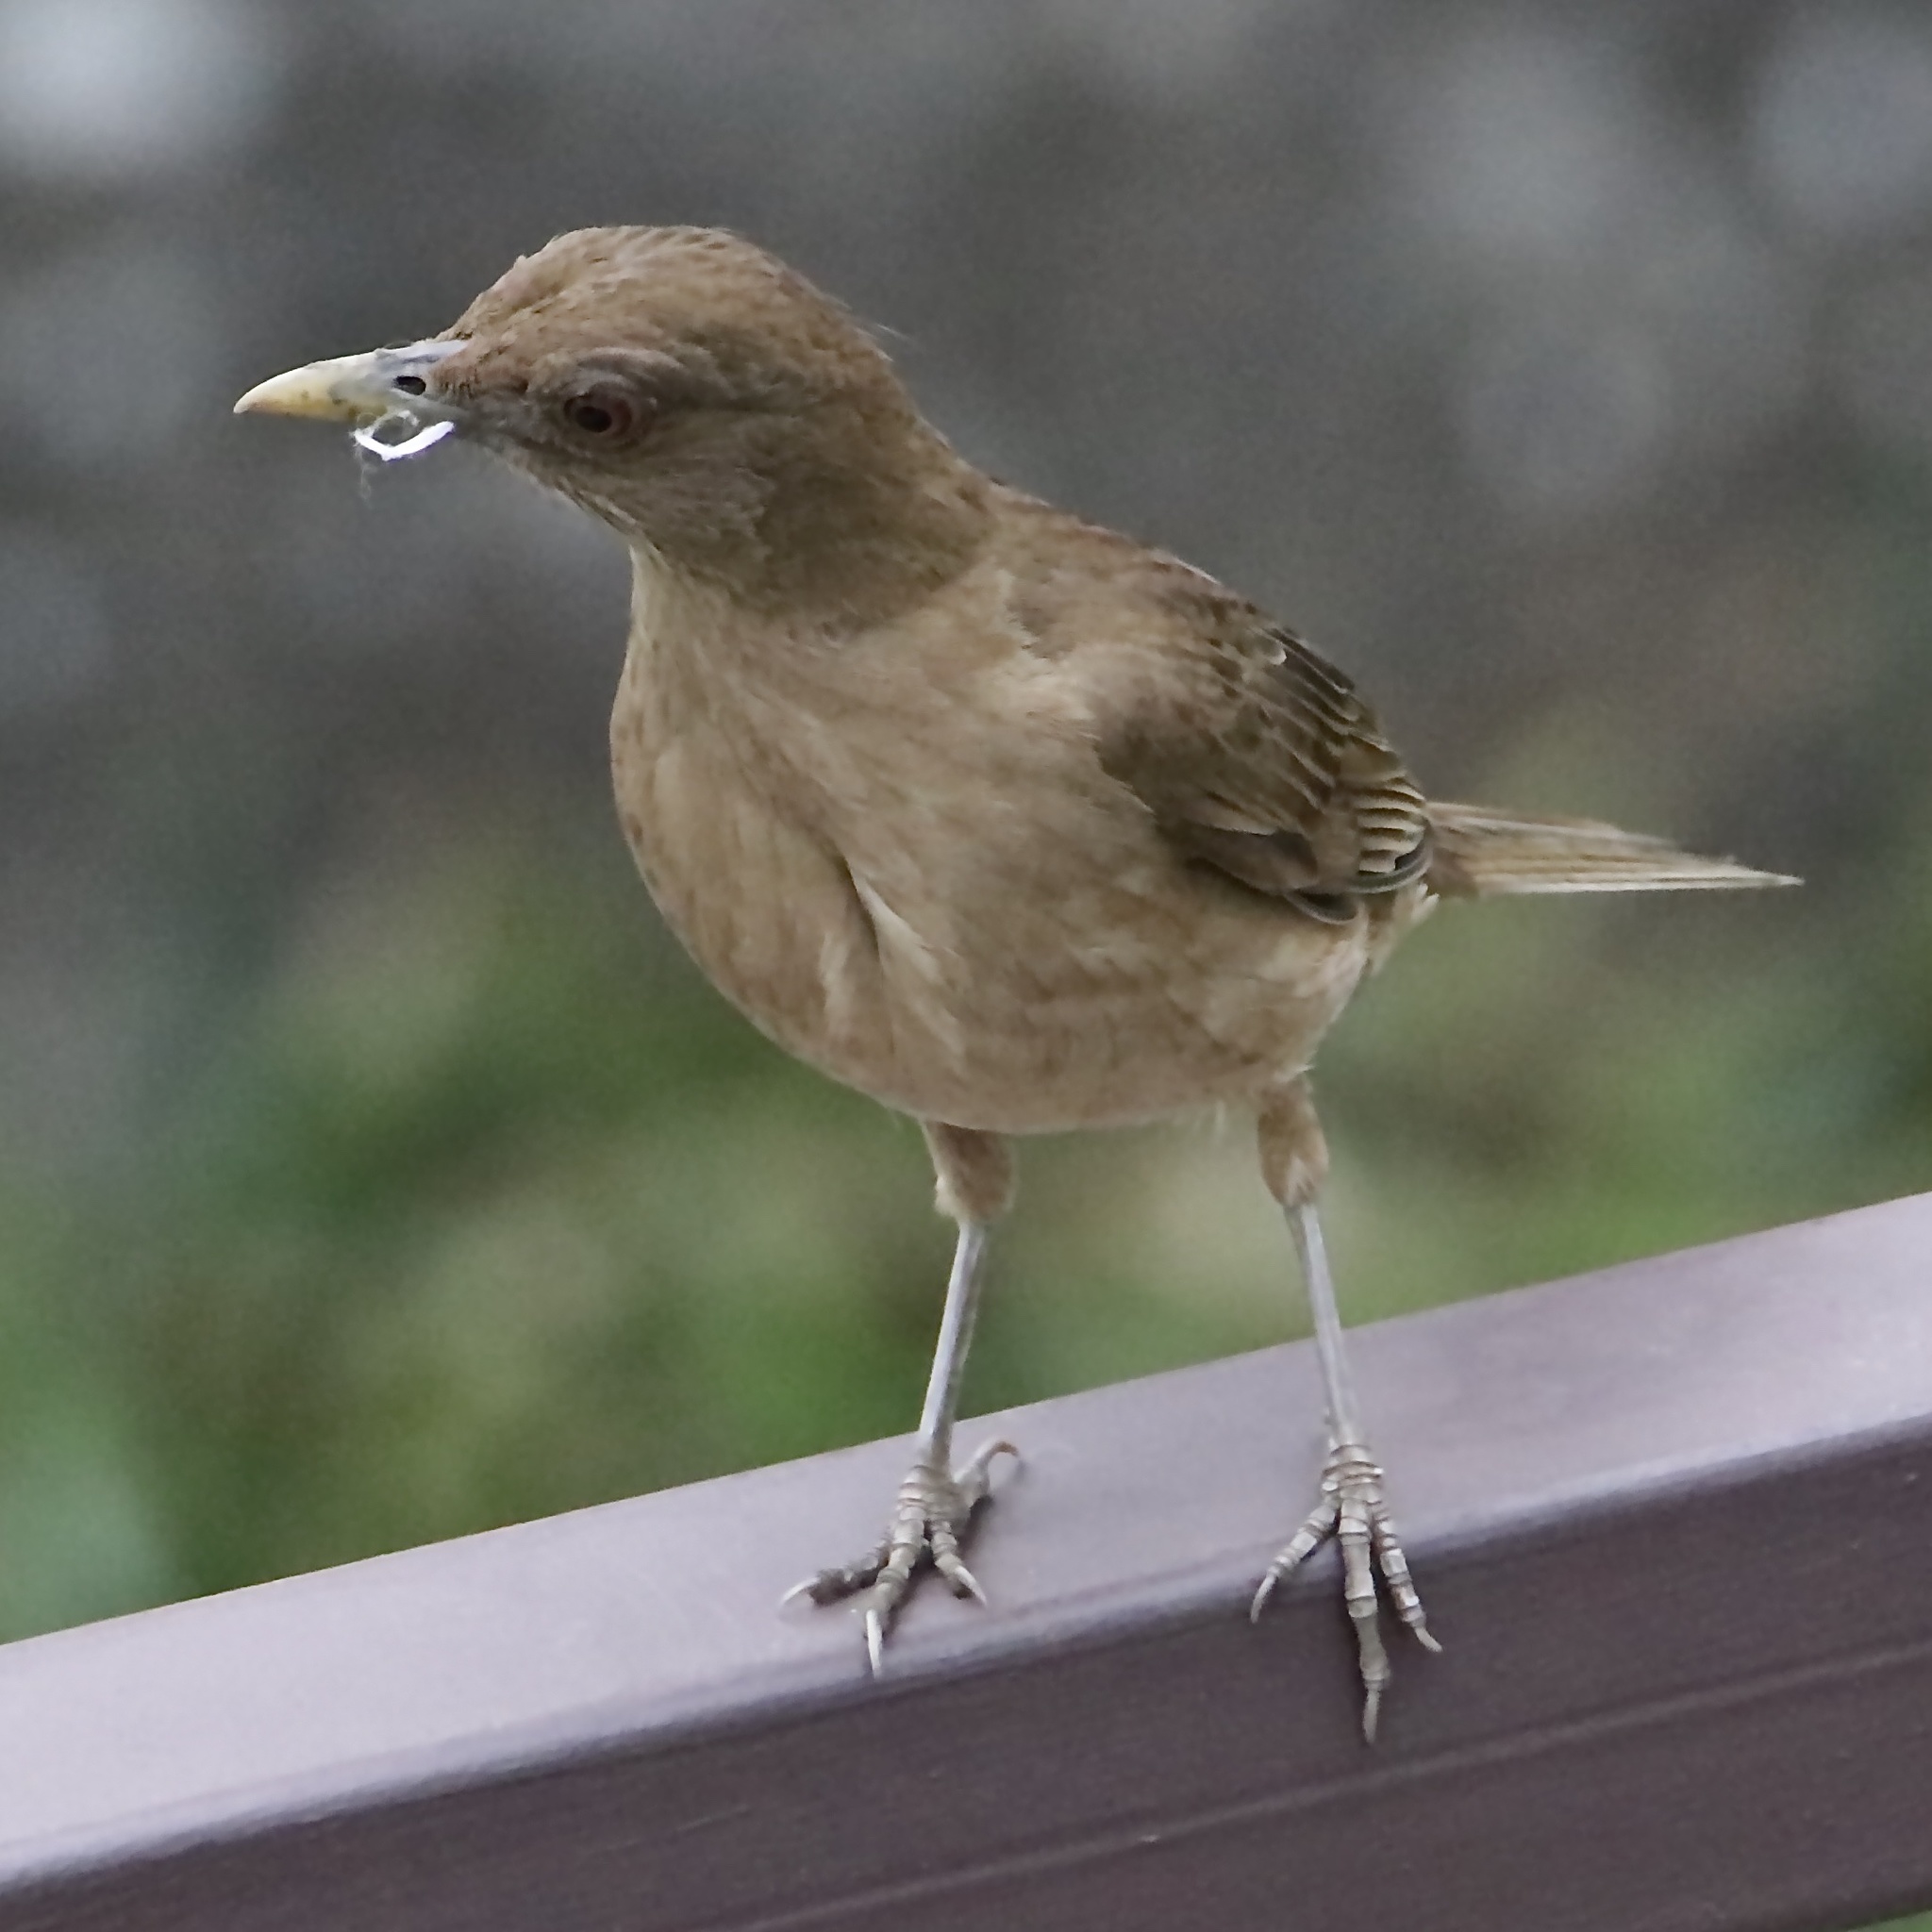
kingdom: Animalia
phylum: Chordata
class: Aves
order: Passeriformes
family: Turdidae
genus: Turdus
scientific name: Turdus grayi
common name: Clay-colored thrush
